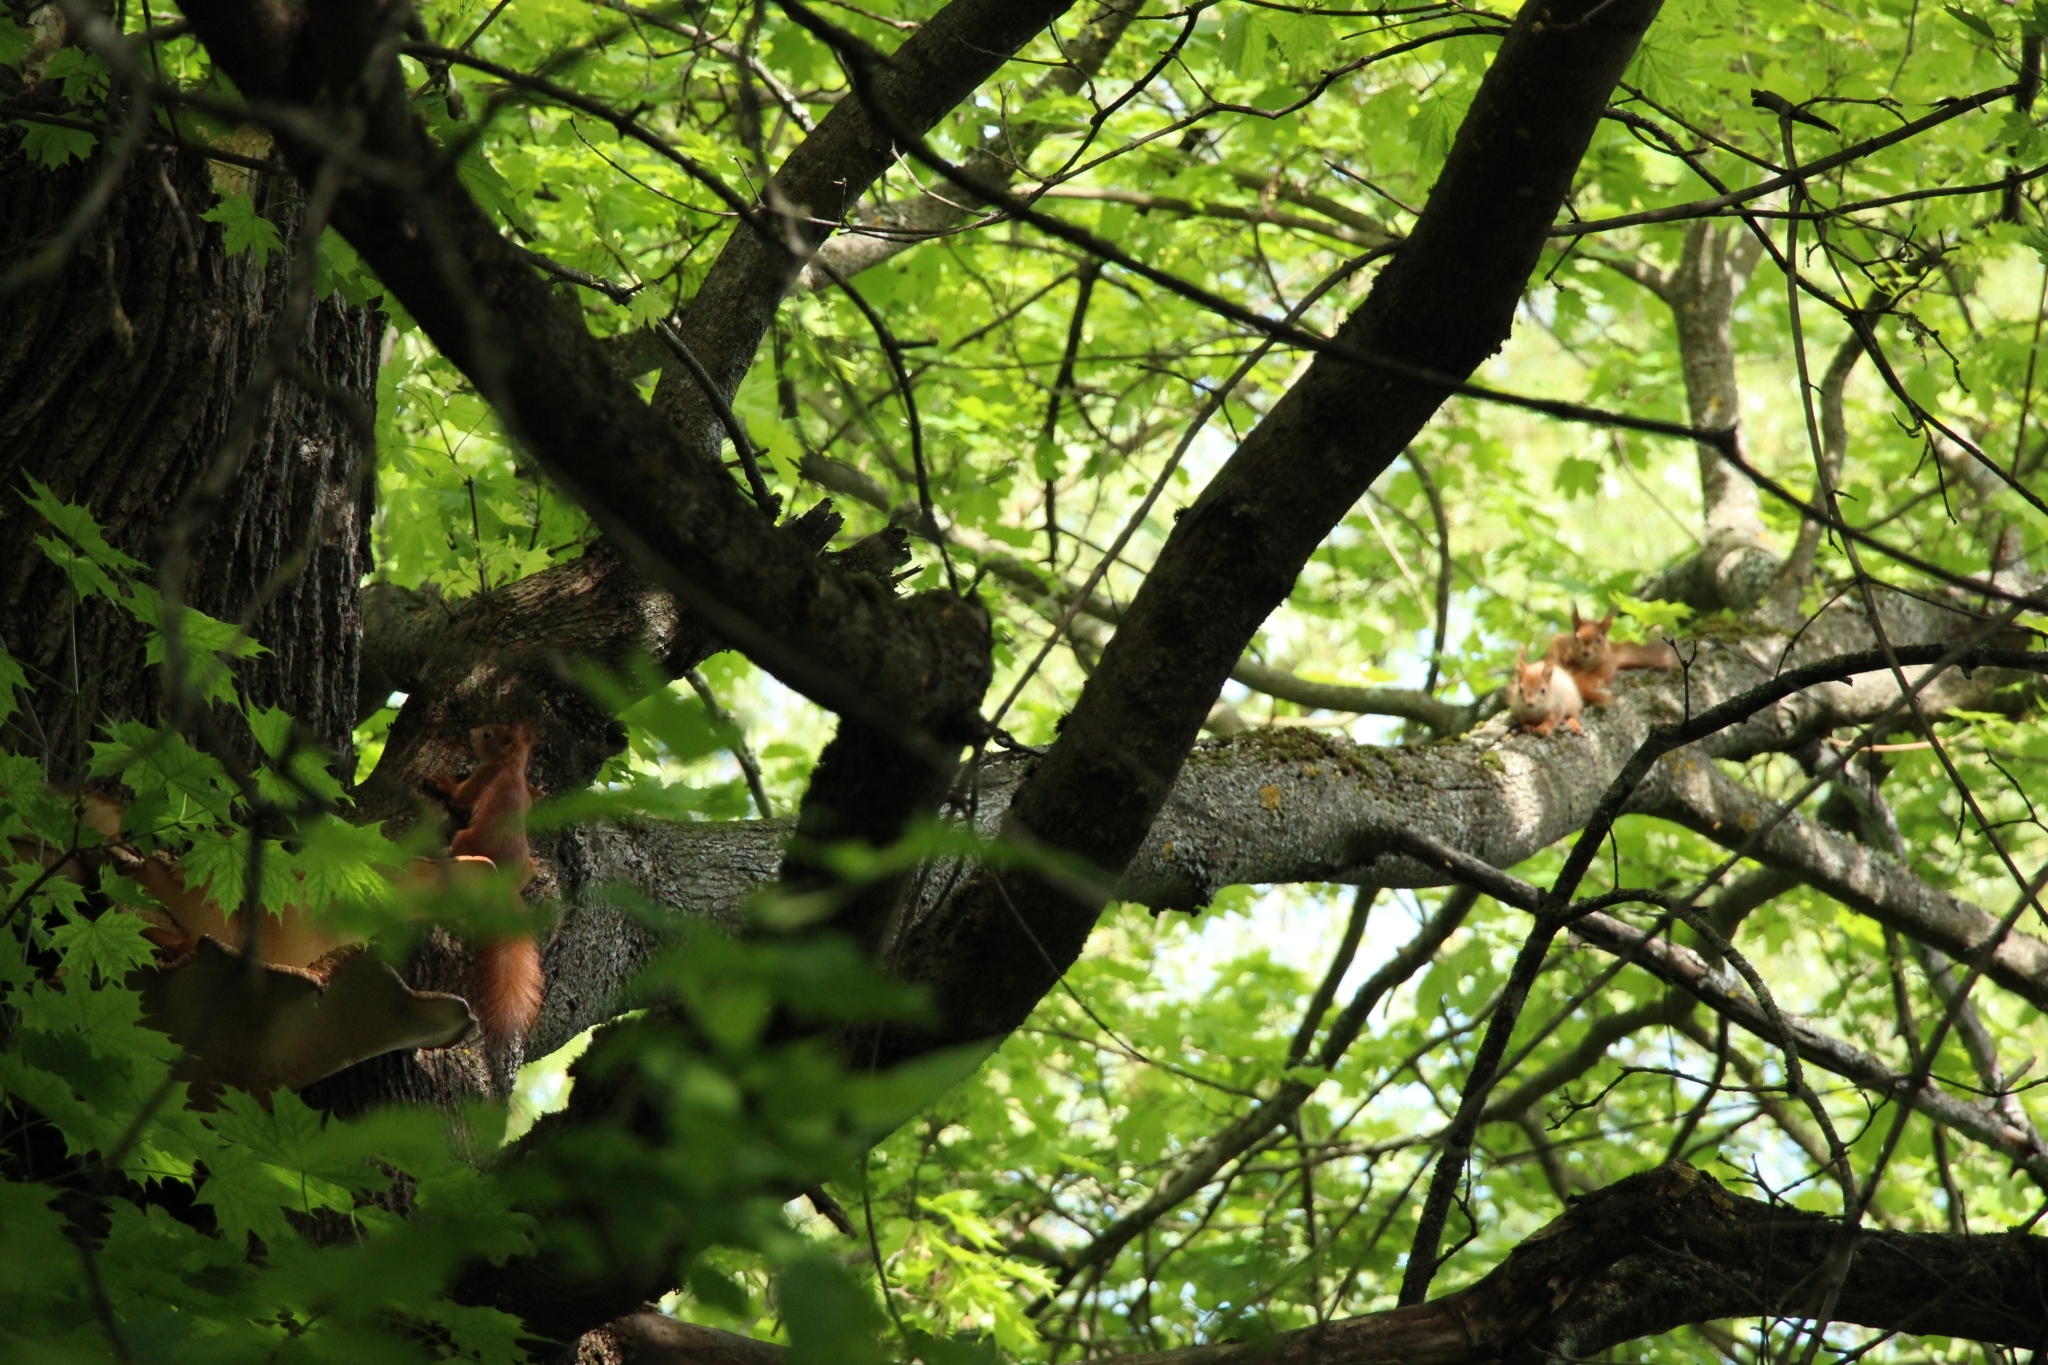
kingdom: Animalia
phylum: Chordata
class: Mammalia
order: Rodentia
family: Sciuridae
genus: Sciurus
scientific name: Sciurus vulgaris
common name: Eurasian red squirrel
